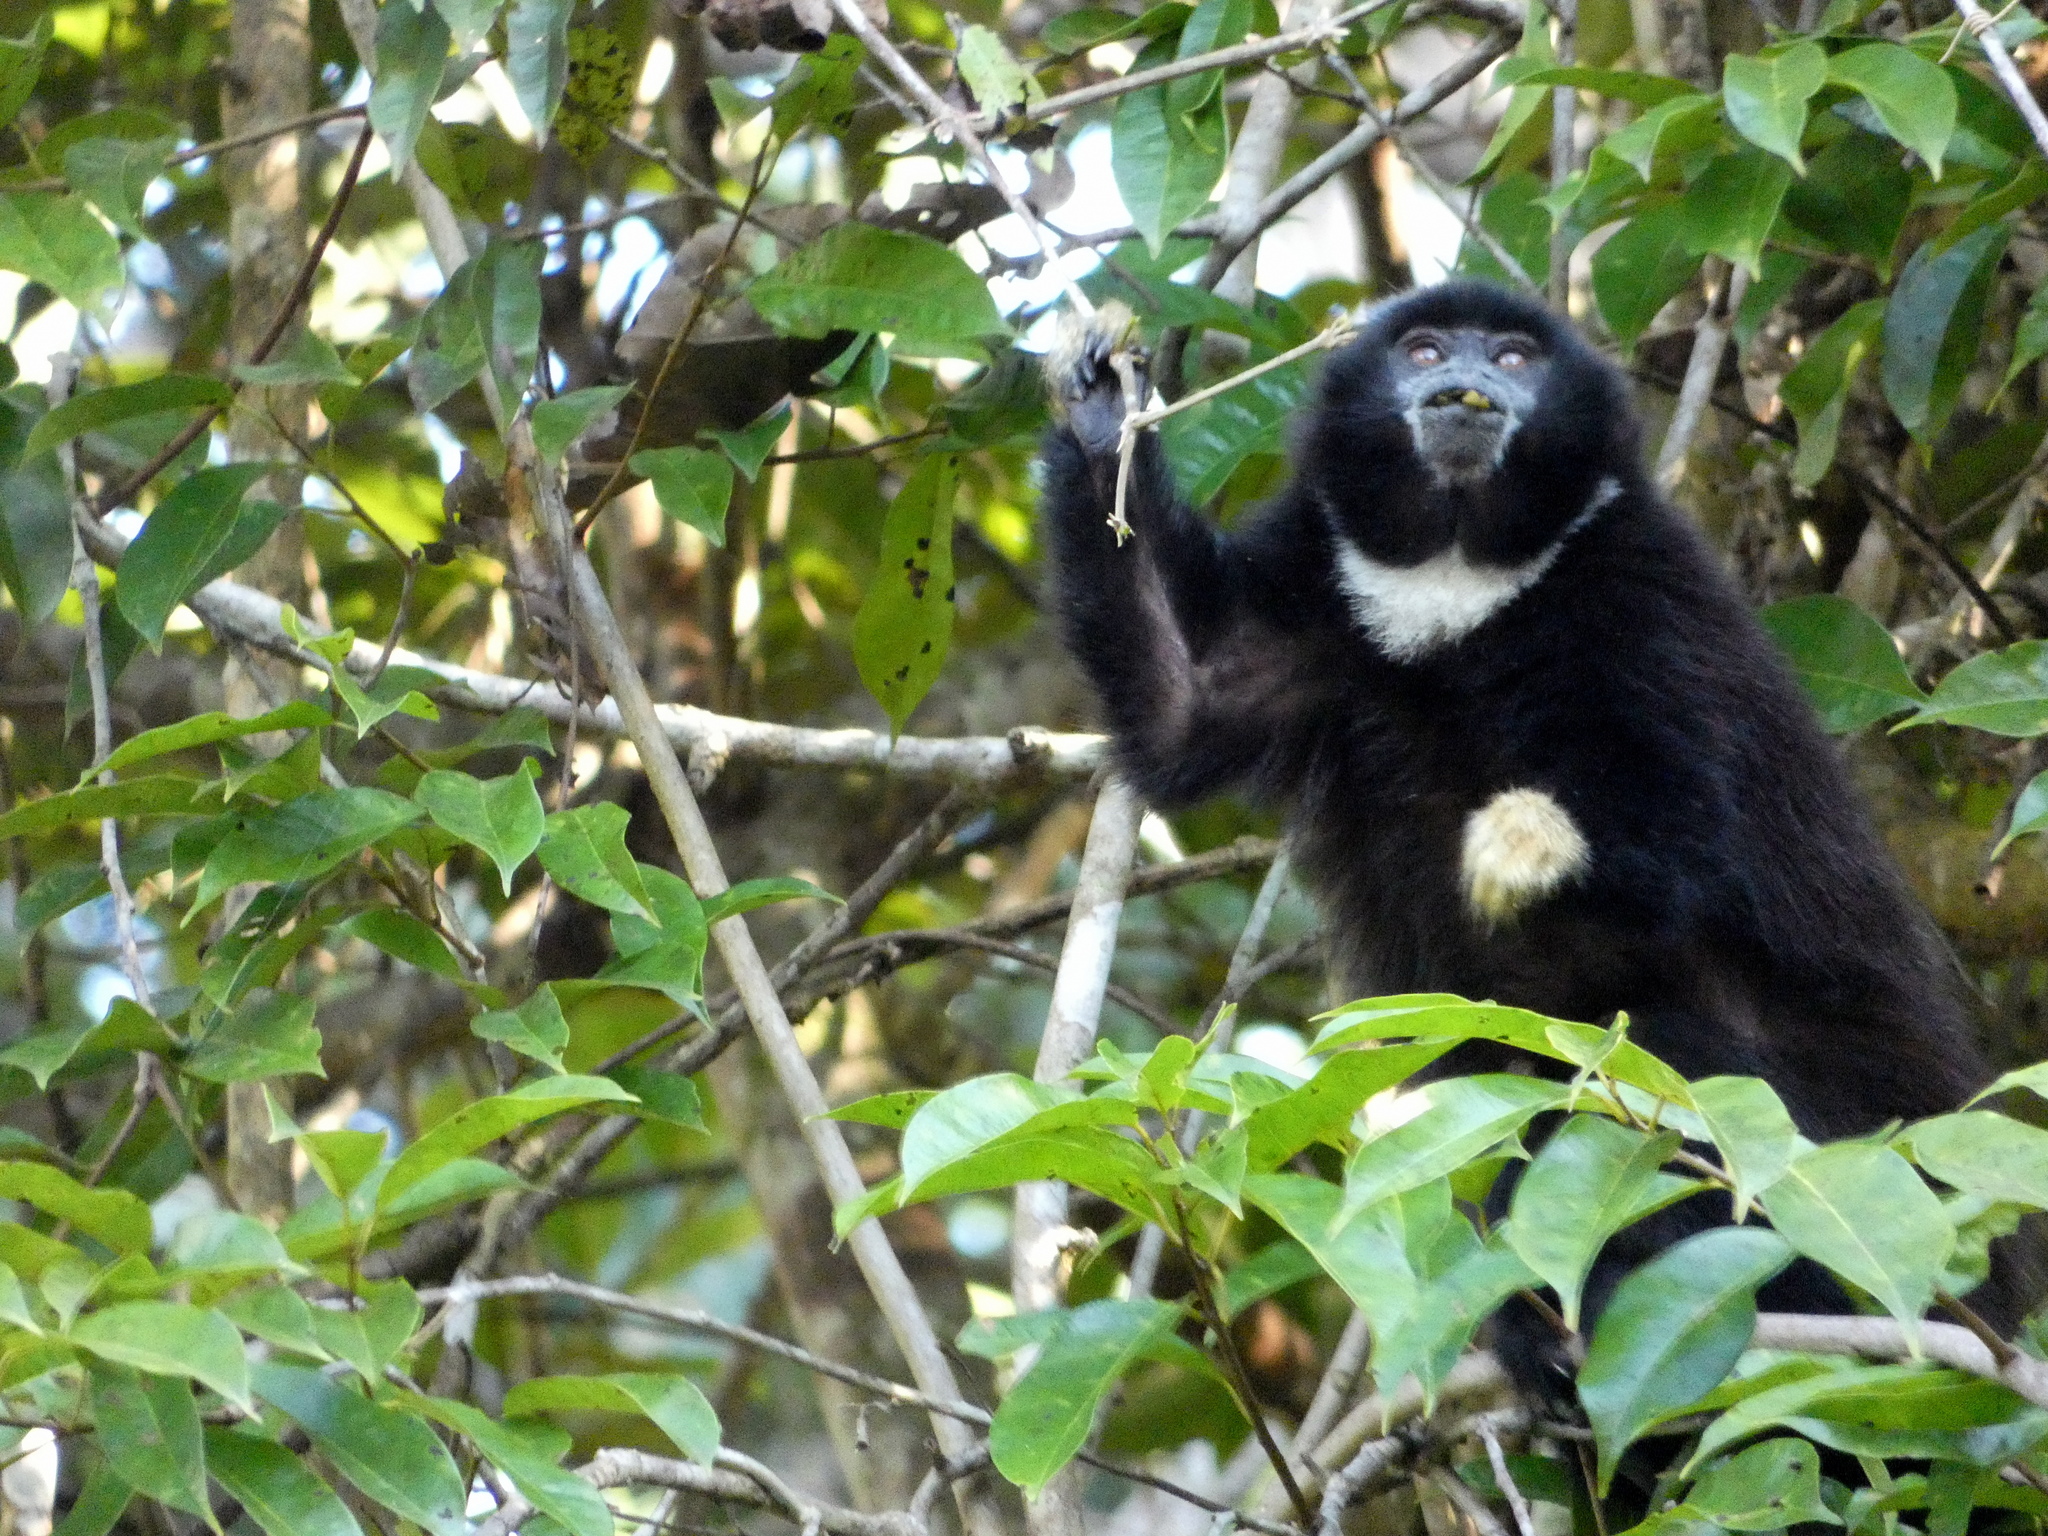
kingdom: Animalia
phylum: Chordata
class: Mammalia
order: Primates
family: Pitheciidae
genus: Cheracebus
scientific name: Cheracebus lucifer
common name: Yellow-handed titi
